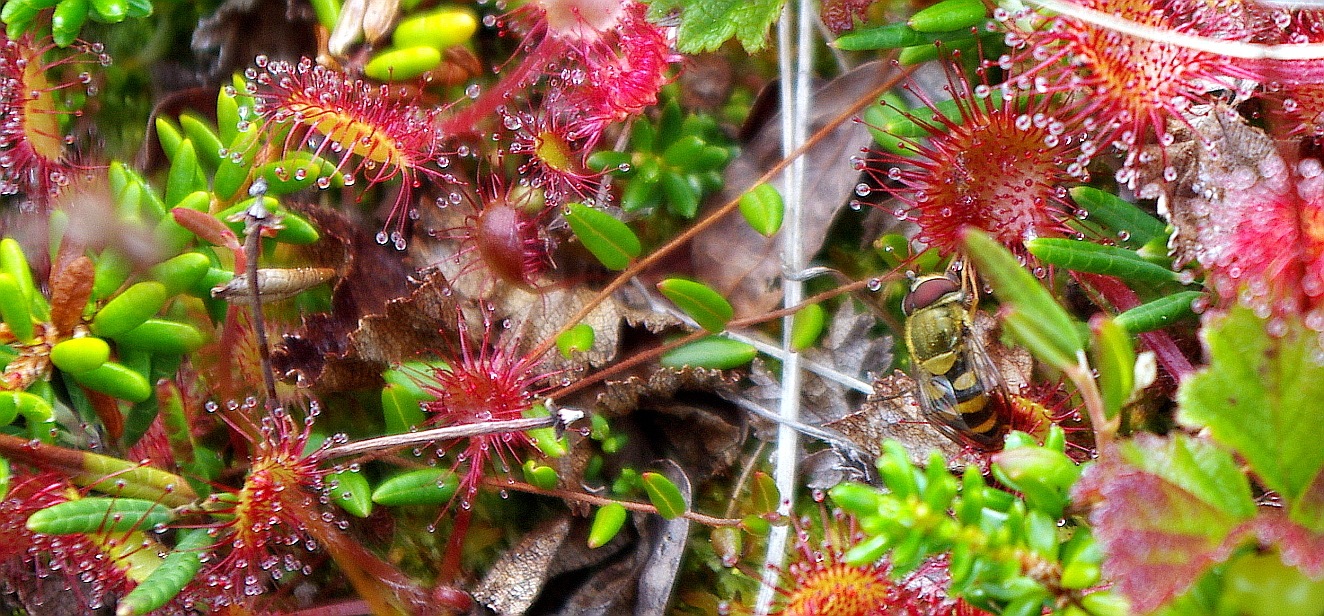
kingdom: Plantae
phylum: Tracheophyta
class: Magnoliopsida
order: Caryophyllales
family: Droseraceae
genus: Drosera
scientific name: Drosera rotundifolia
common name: Round-leaved sundew
